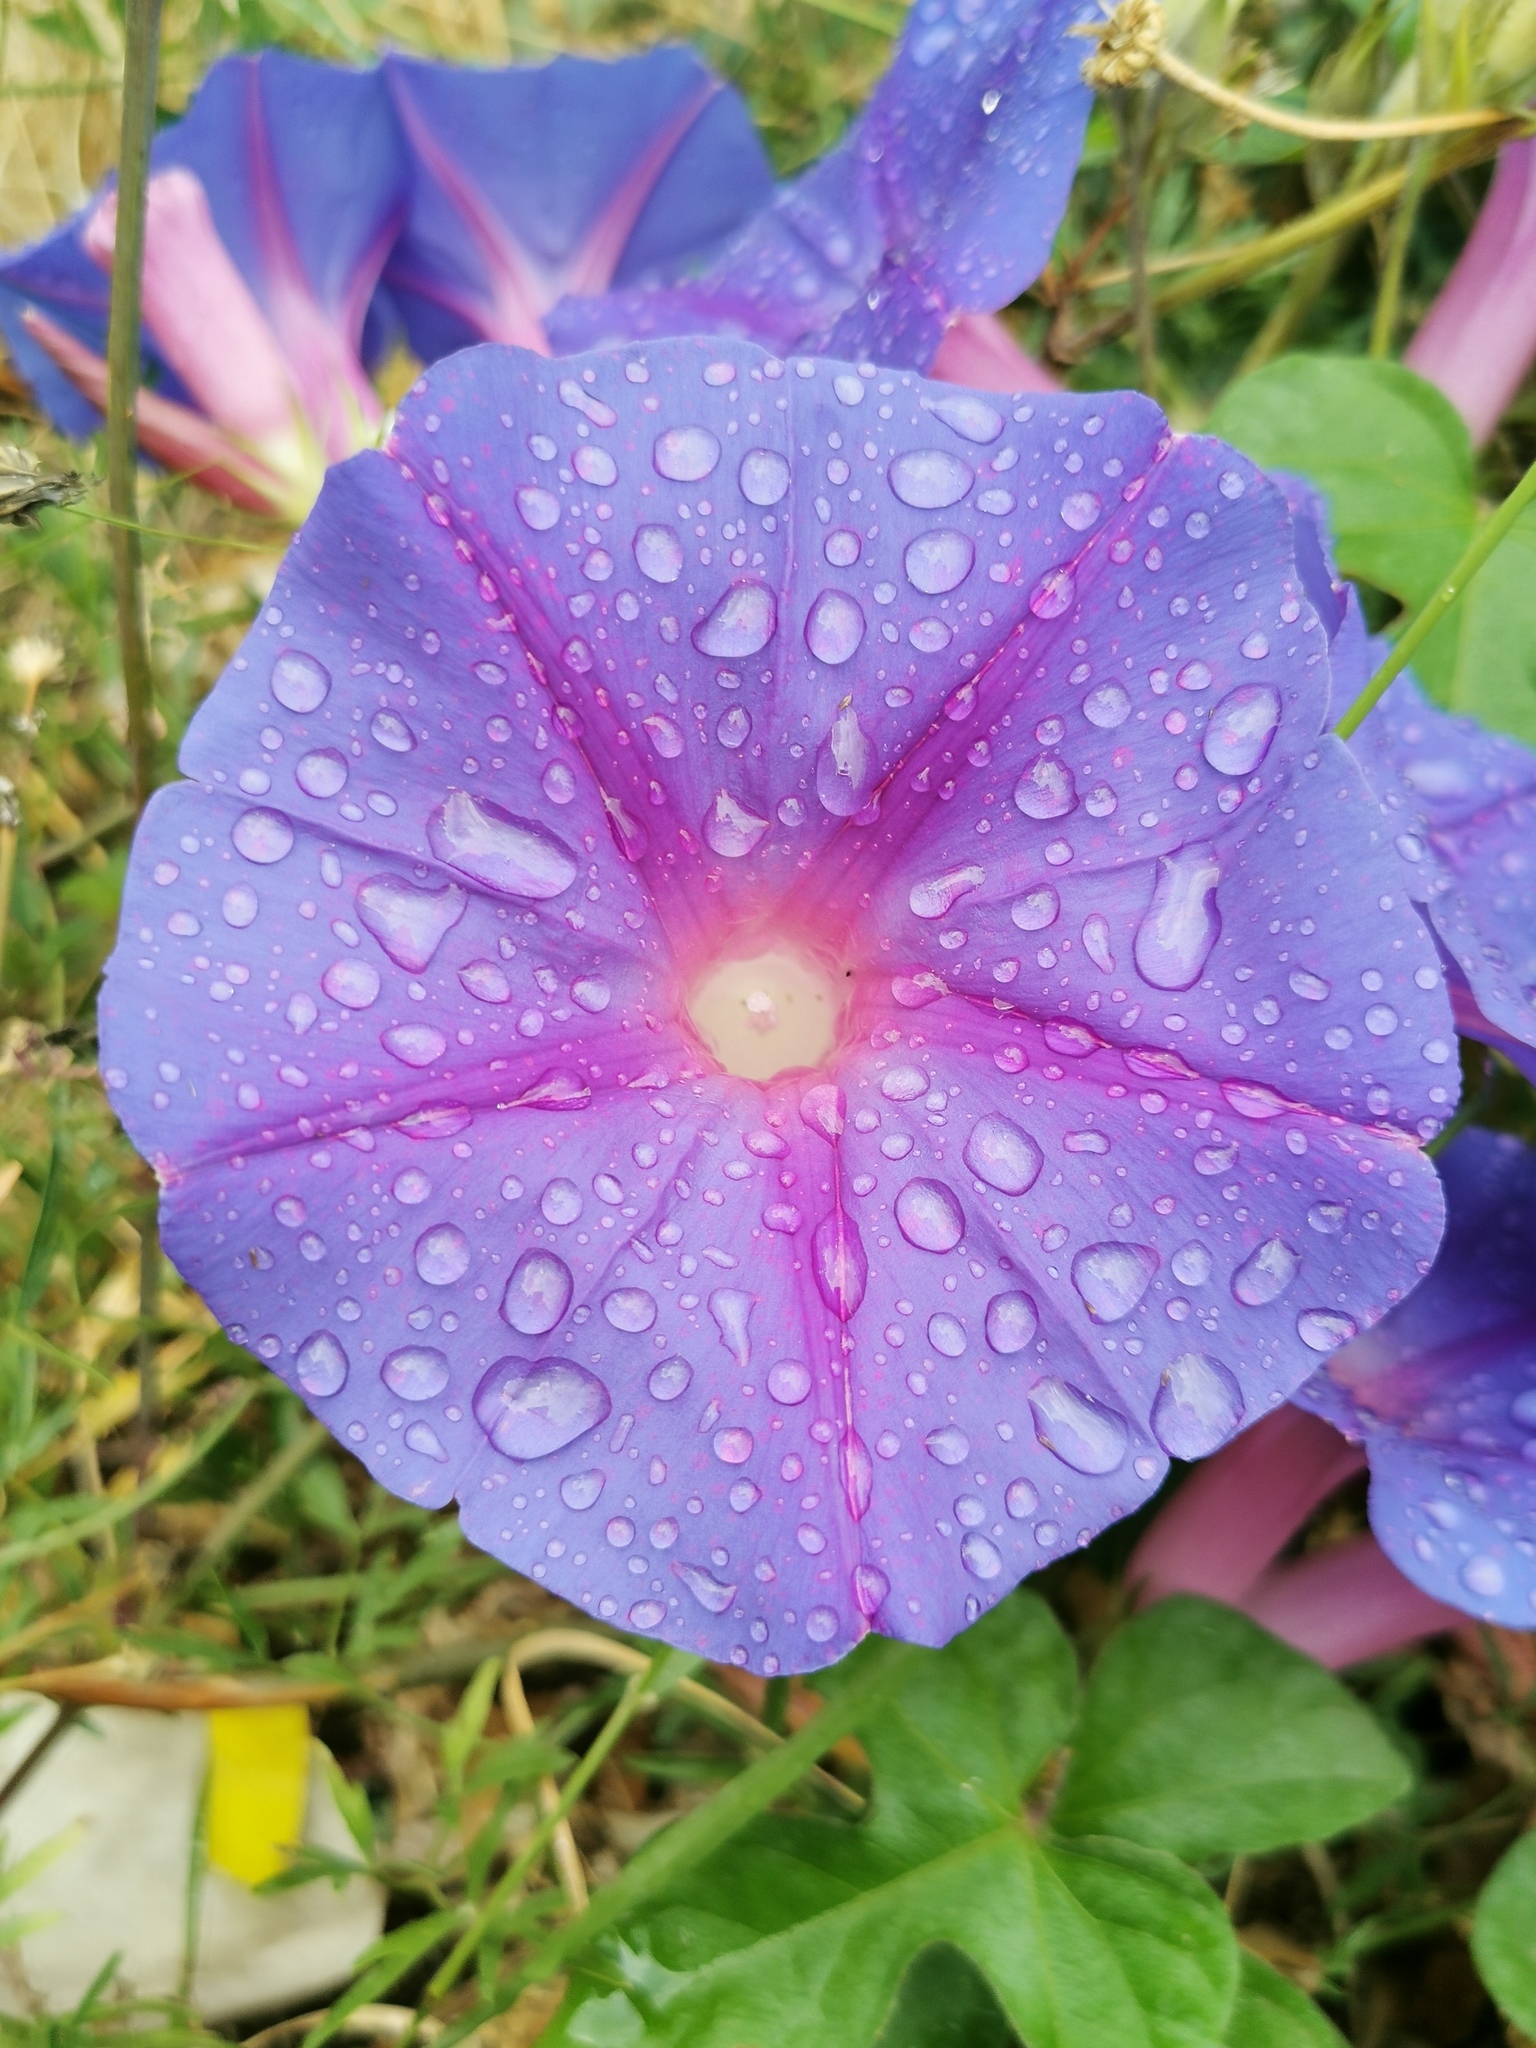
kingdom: Plantae
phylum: Tracheophyta
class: Magnoliopsida
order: Solanales
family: Convolvulaceae
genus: Ipomoea
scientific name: Ipomoea indica
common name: Blue dawnflower
